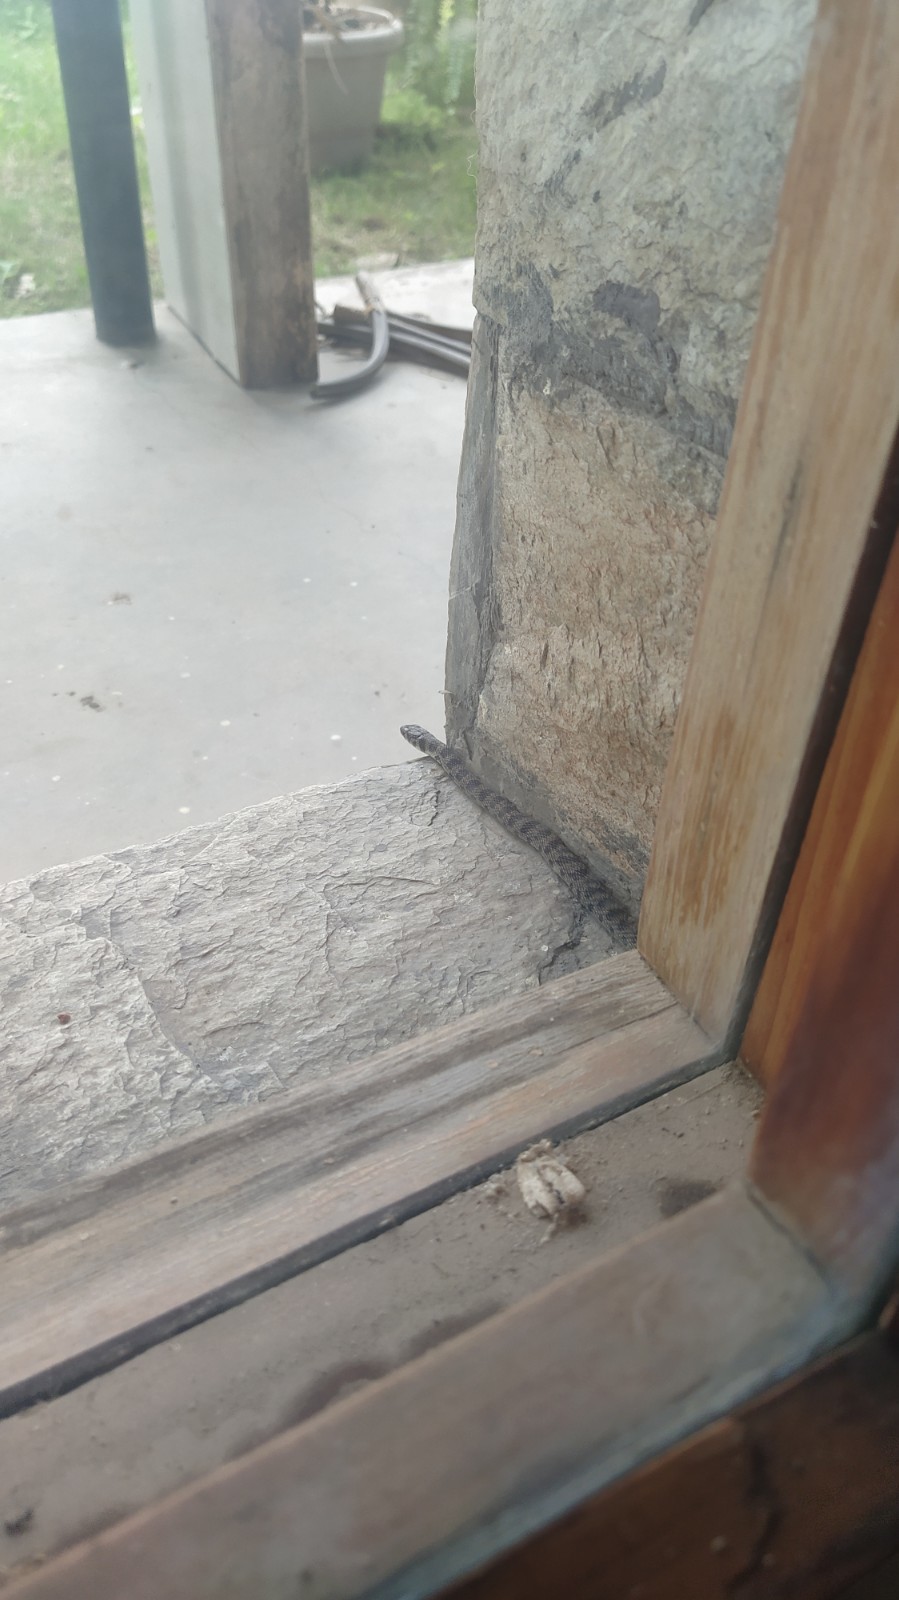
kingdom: Animalia
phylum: Chordata
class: Squamata
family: Colubridae
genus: Platyceps
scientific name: Platyceps rhodorachis
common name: Braid snake
